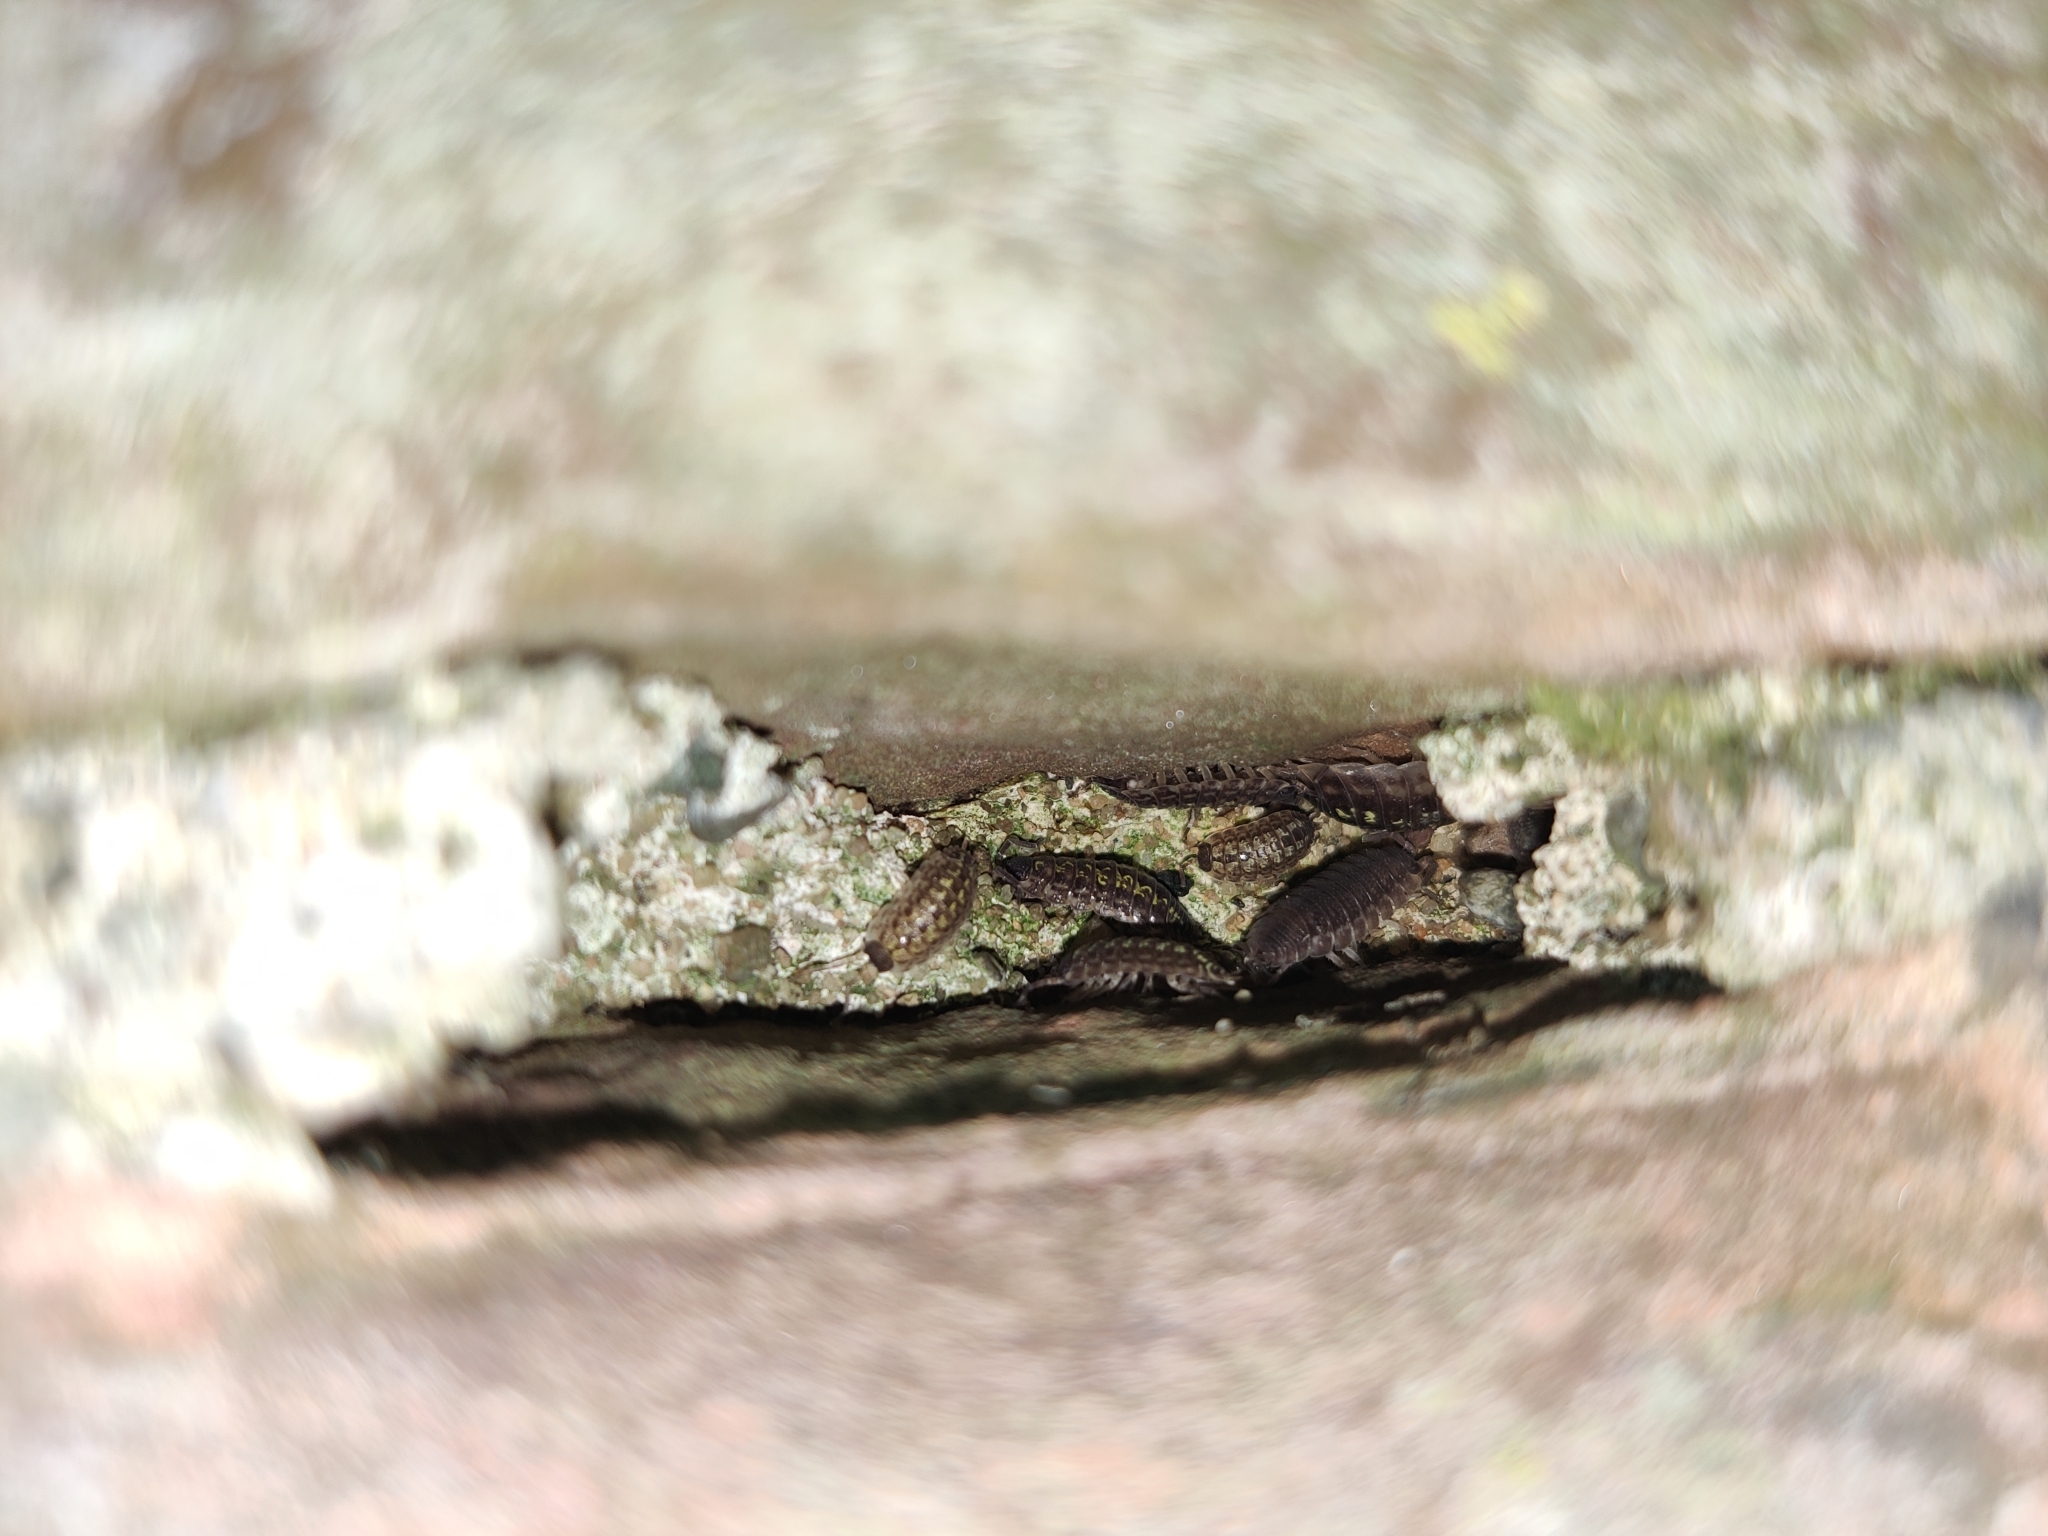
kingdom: Animalia
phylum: Arthropoda
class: Malacostraca
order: Isopoda
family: Porcellionidae
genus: Porcellio
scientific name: Porcellio spinicornis
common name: Painted woodlouse
